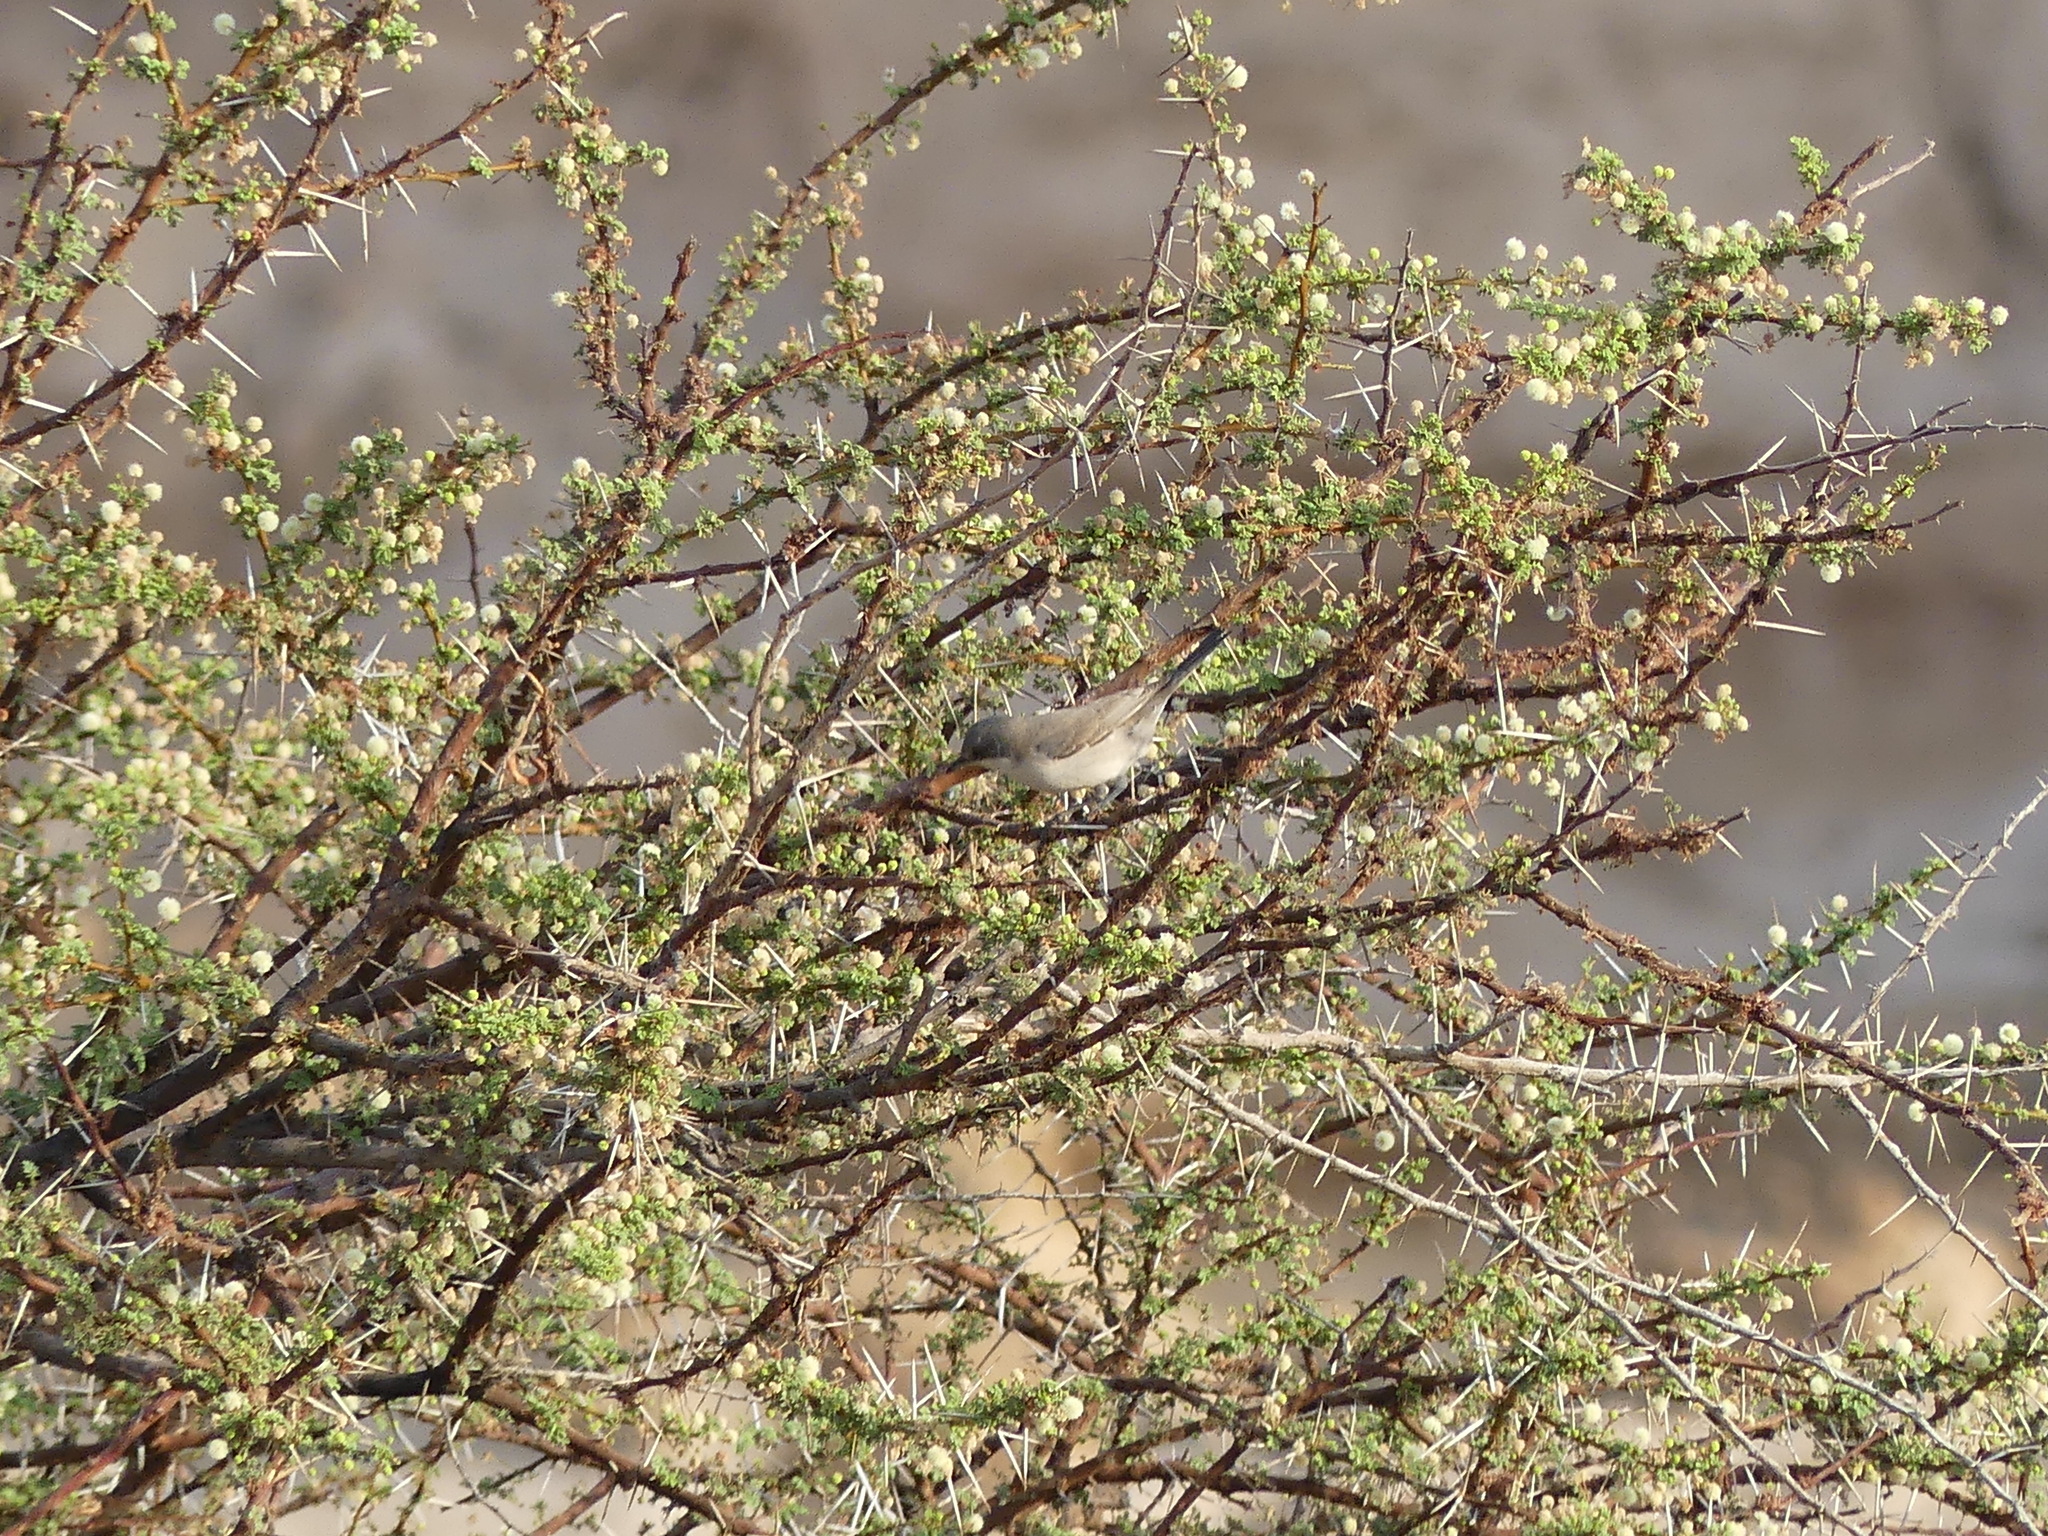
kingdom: Animalia
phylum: Chordata
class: Aves
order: Passeriformes
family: Sylviidae
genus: Sylvia
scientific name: Sylvia curruca
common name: Lesser whitethroat
